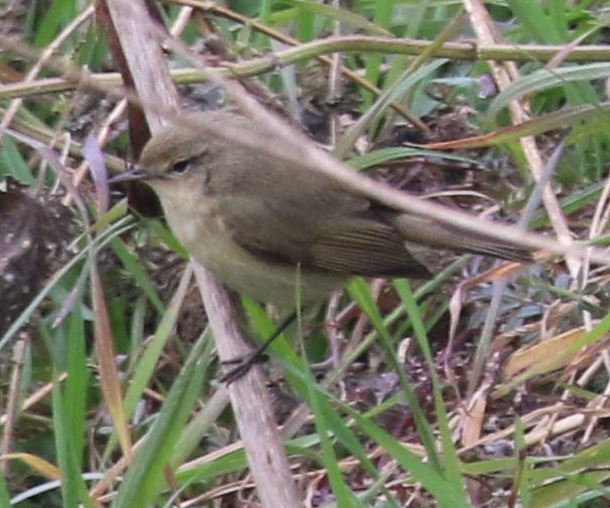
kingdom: Animalia
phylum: Chordata
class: Aves
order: Passeriformes
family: Phylloscopidae
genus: Phylloscopus
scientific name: Phylloscopus collybita
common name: Common chiffchaff
